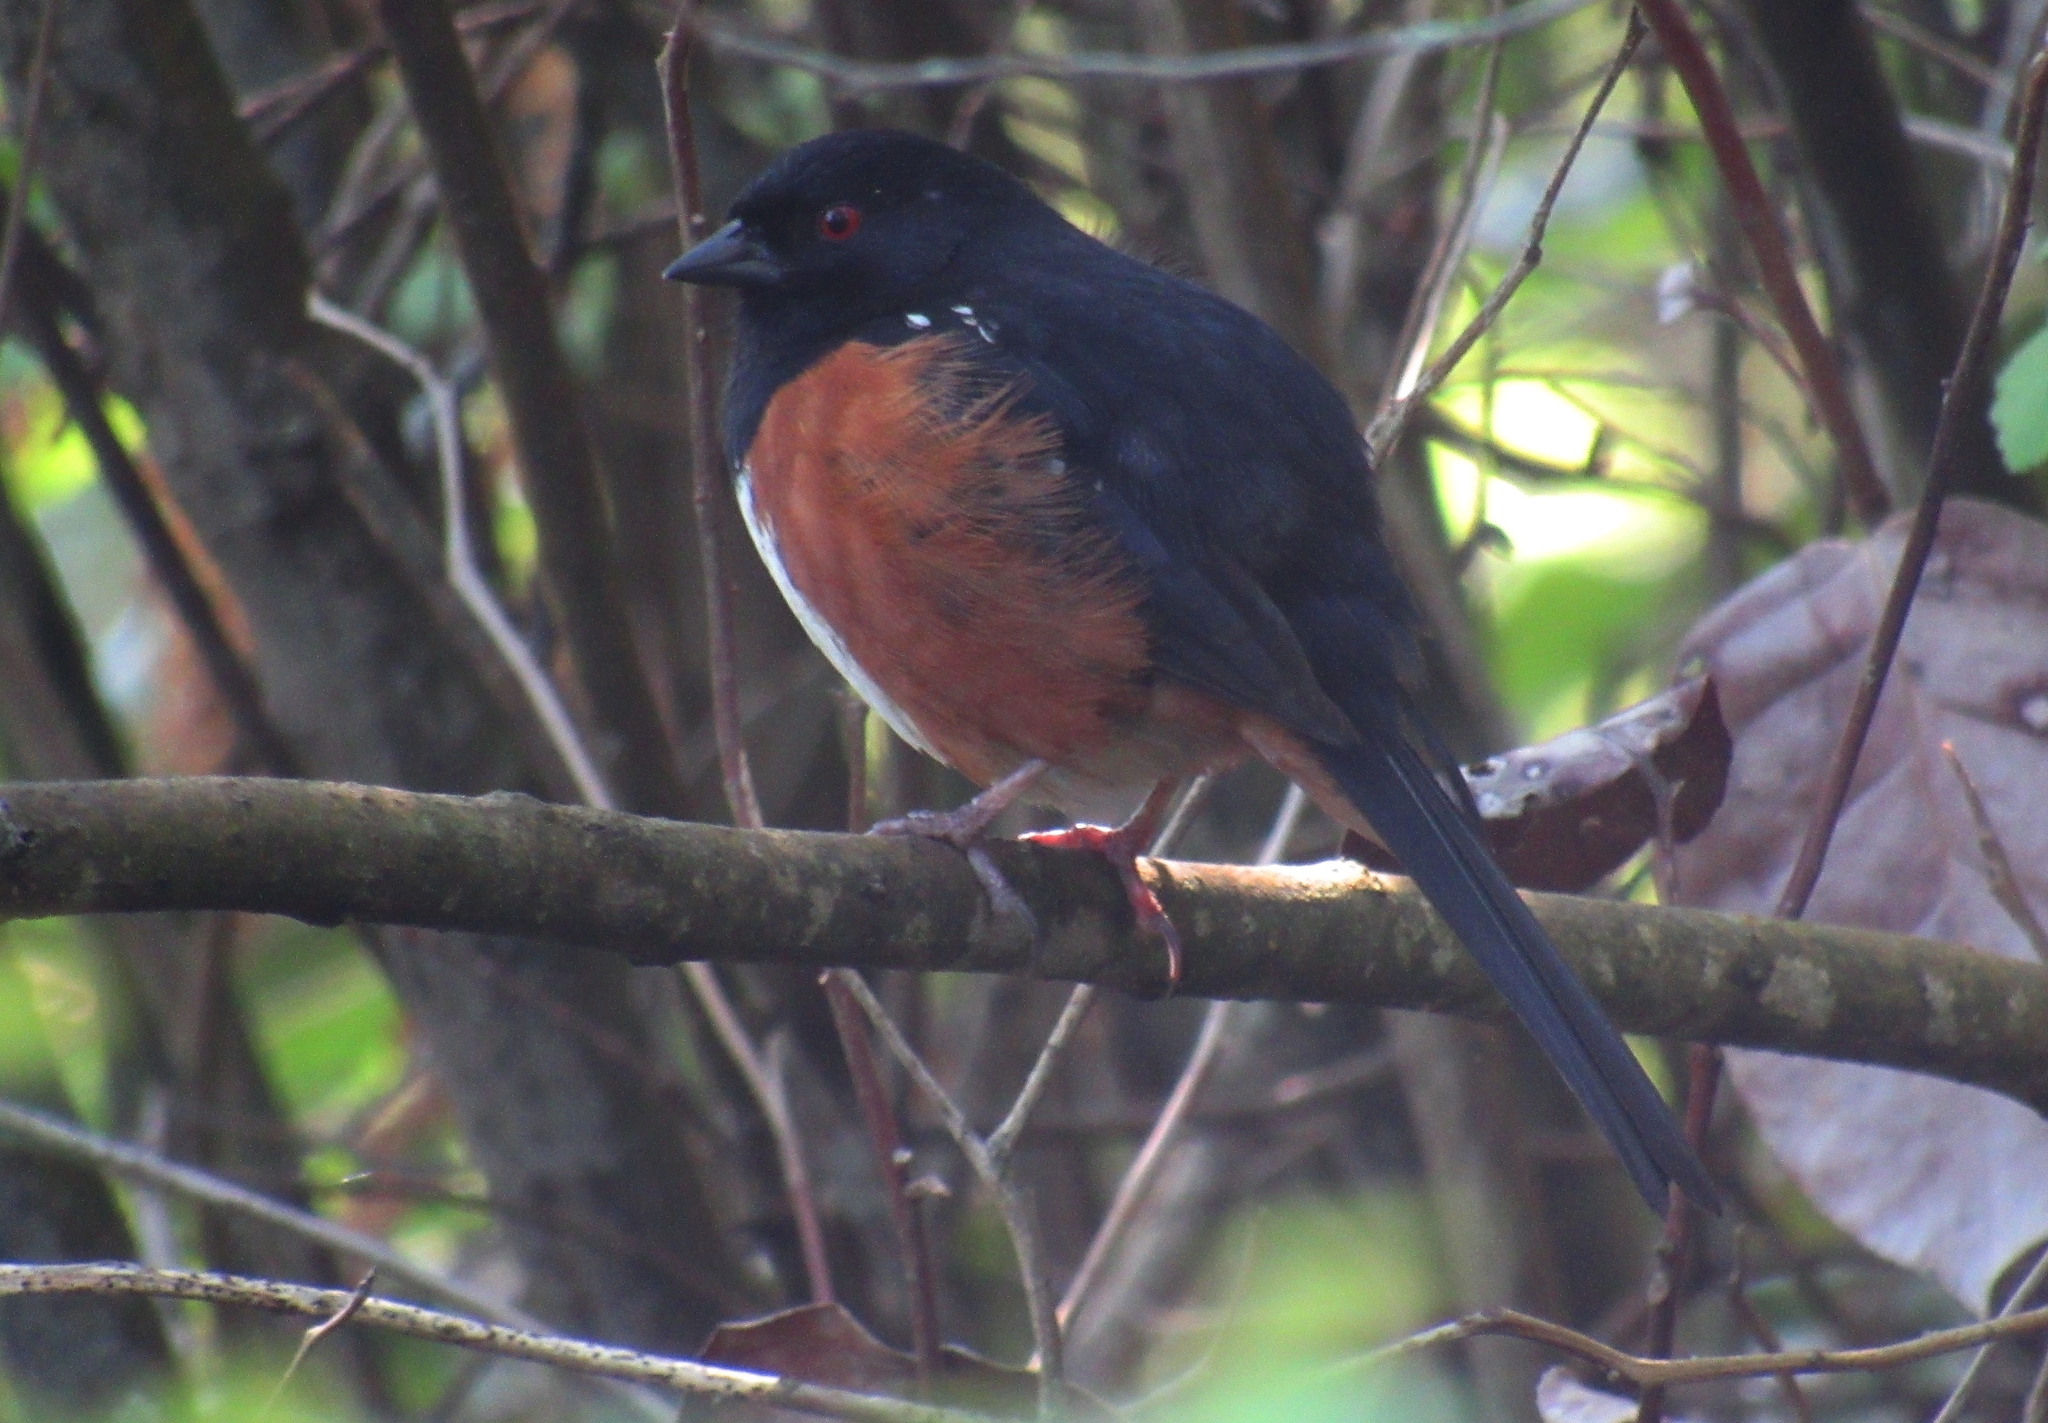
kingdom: Animalia
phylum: Chordata
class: Aves
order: Passeriformes
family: Passerellidae
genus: Pipilo
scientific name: Pipilo maculatus
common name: Spotted towhee
